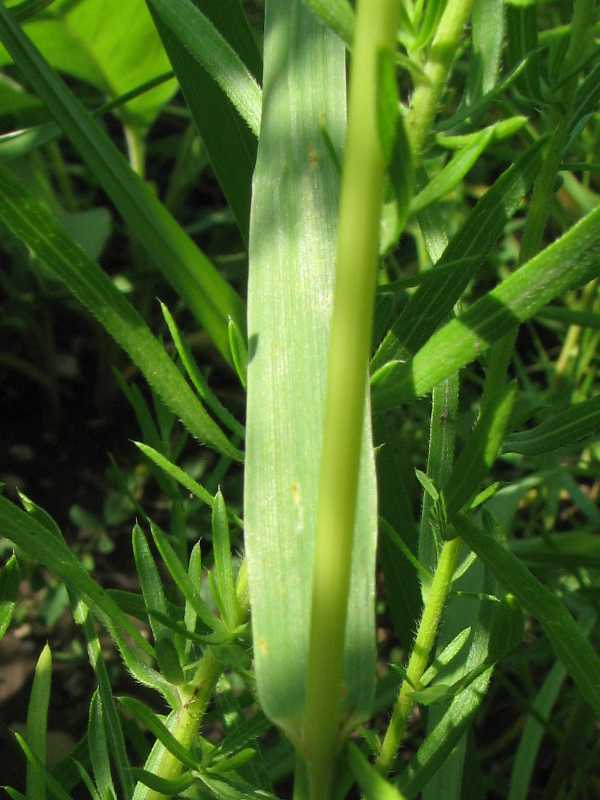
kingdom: Plantae
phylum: Tracheophyta
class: Liliopsida
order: Poales
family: Poaceae
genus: Bromus
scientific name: Bromus inermis
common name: Smooth brome
